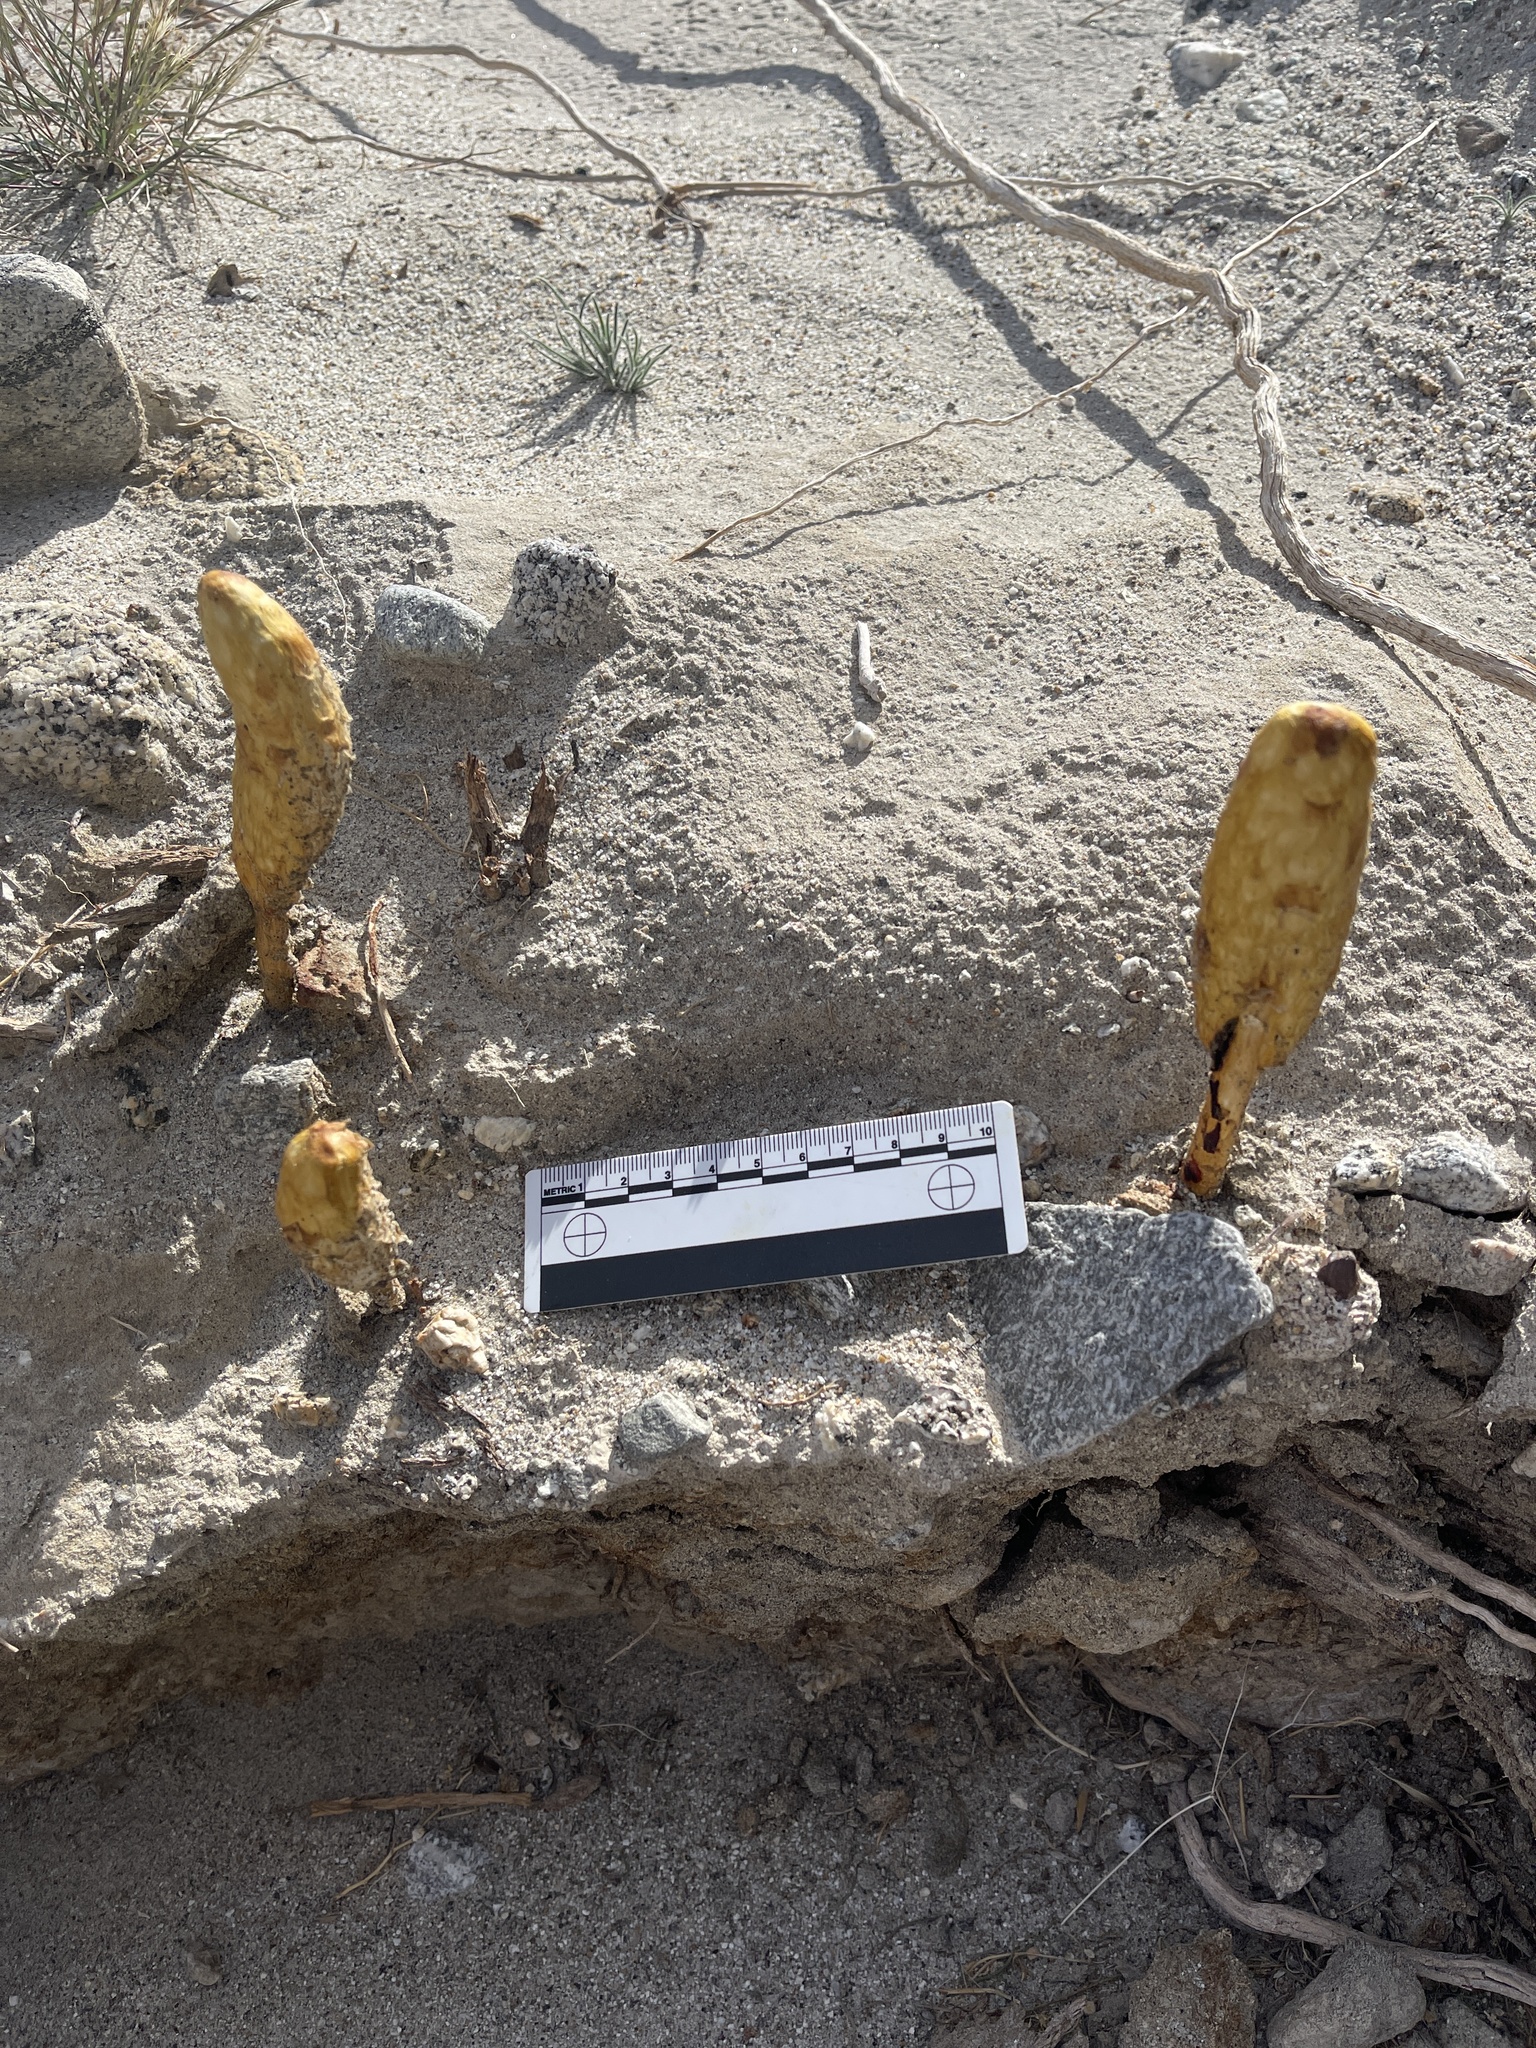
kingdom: Fungi
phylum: Basidiomycota
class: Agaricomycetes
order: Agaricales
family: Agaricaceae
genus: Podaxis
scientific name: Podaxis pistillaris
